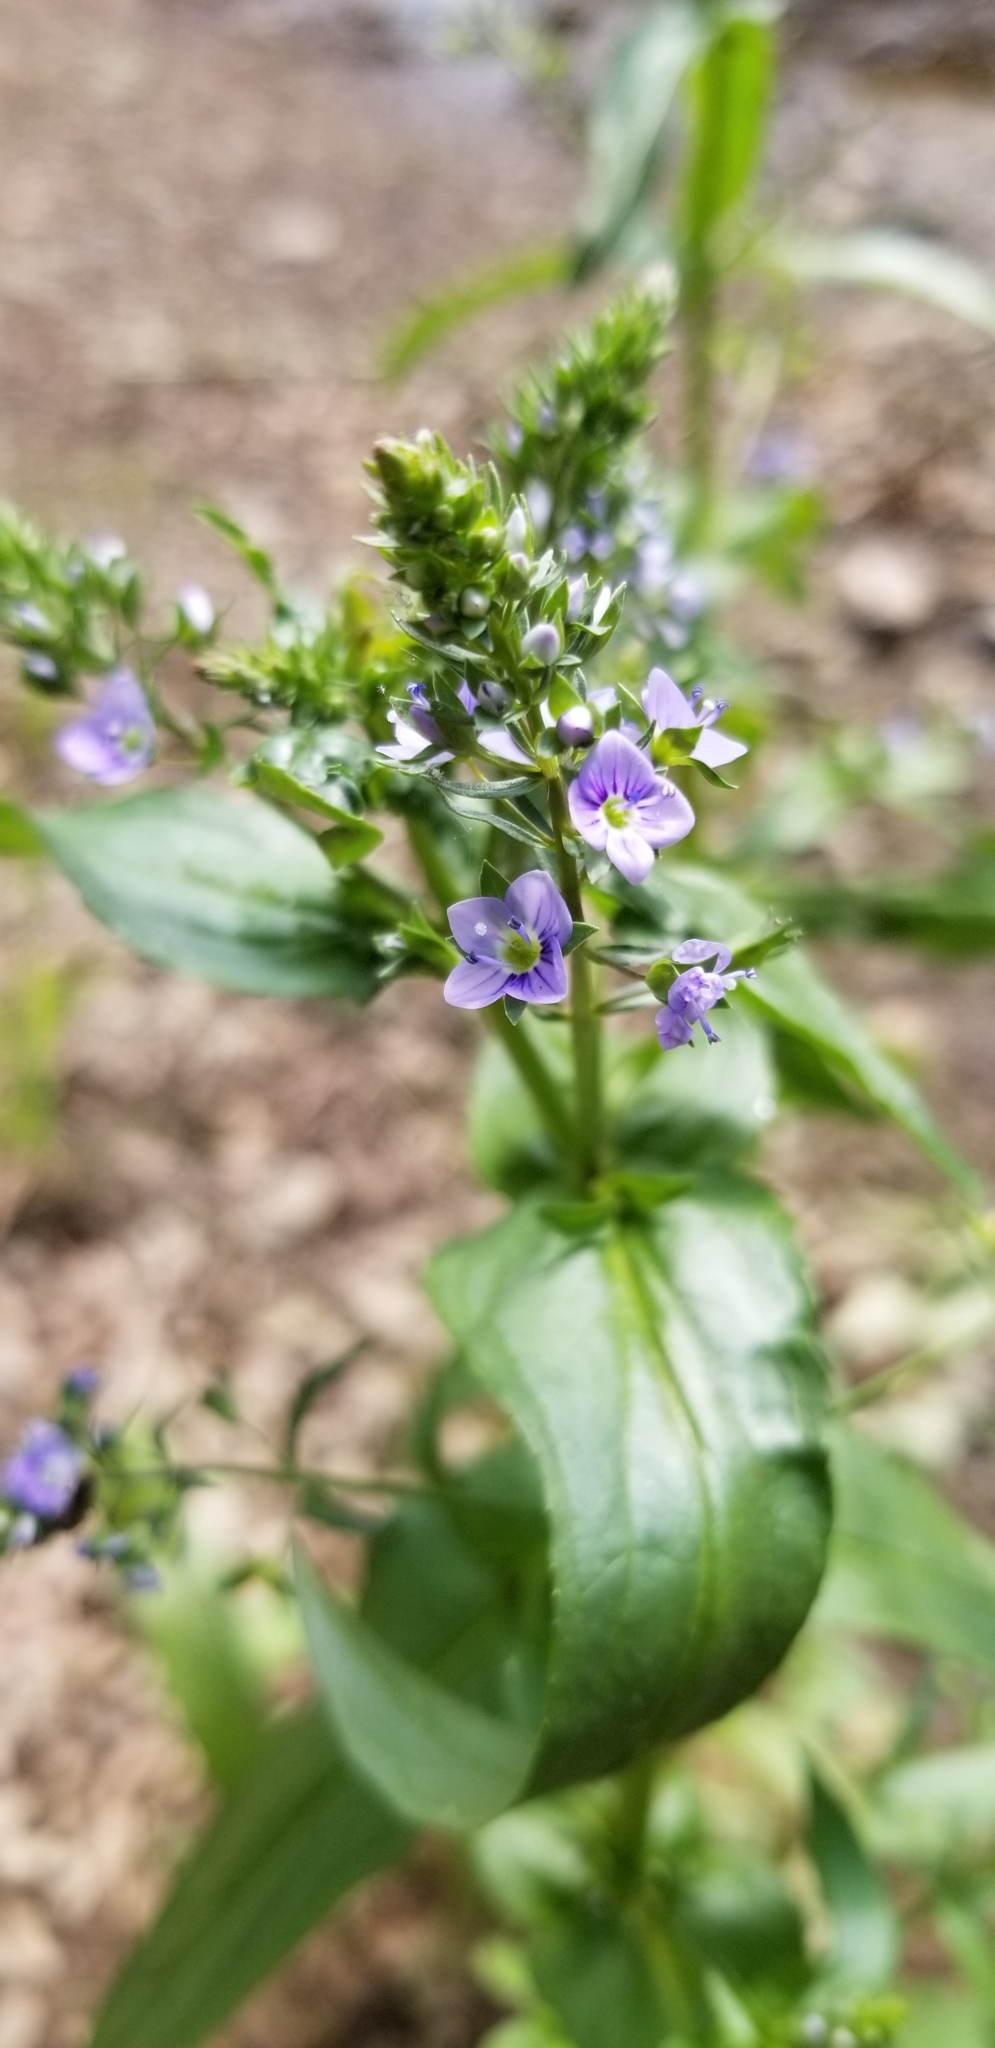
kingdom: Plantae
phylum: Tracheophyta
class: Magnoliopsida
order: Lamiales
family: Plantaginaceae
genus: Veronica
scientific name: Veronica anagallis-aquatica
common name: Water speedwell
